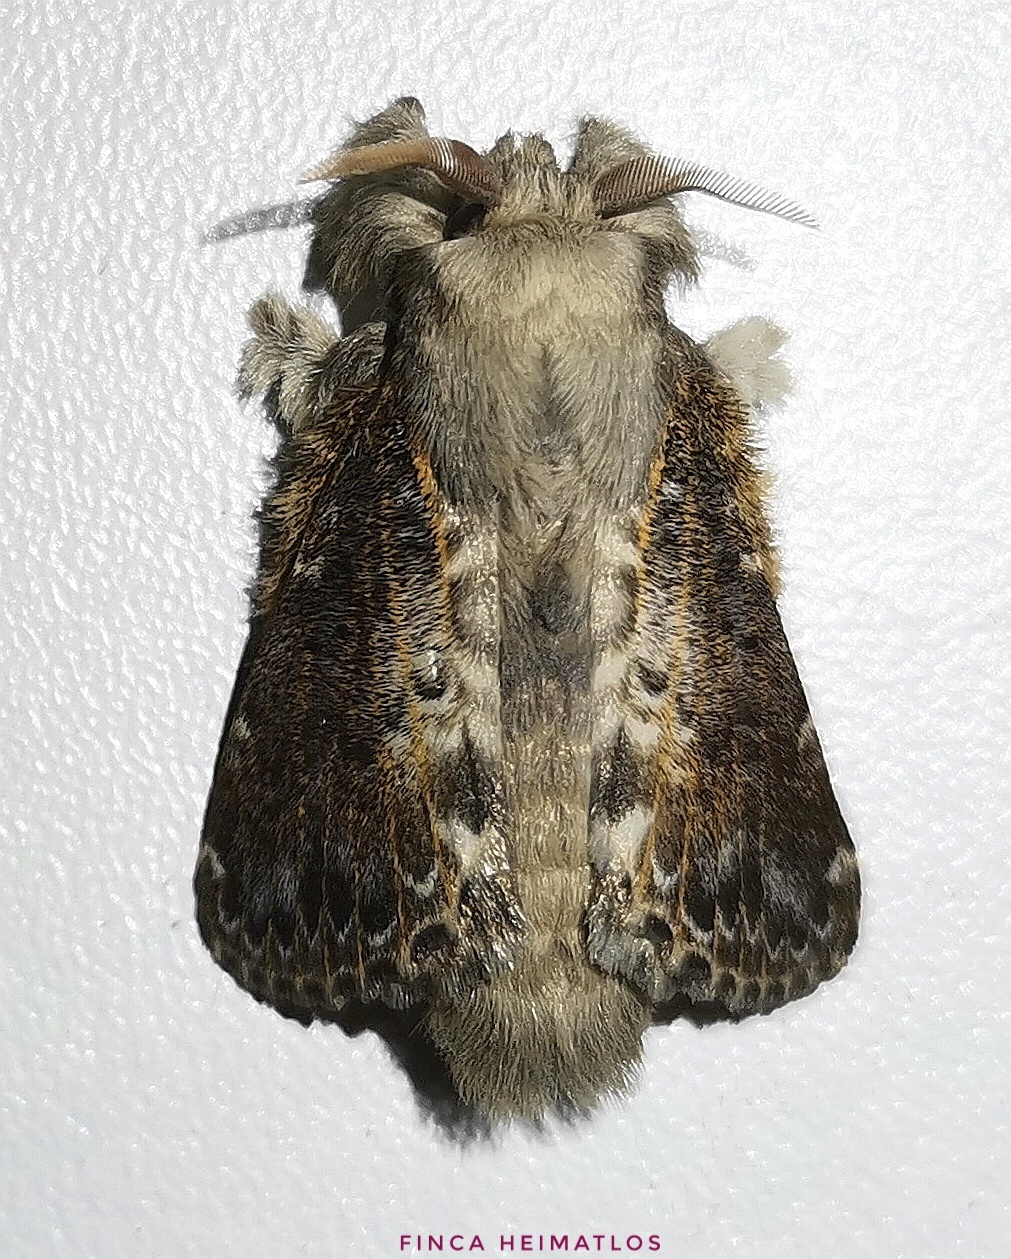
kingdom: Animalia
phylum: Arthropoda
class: Insecta
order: Lepidoptera
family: Lasiocampidae
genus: Euglyphis
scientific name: Euglyphis claudia
